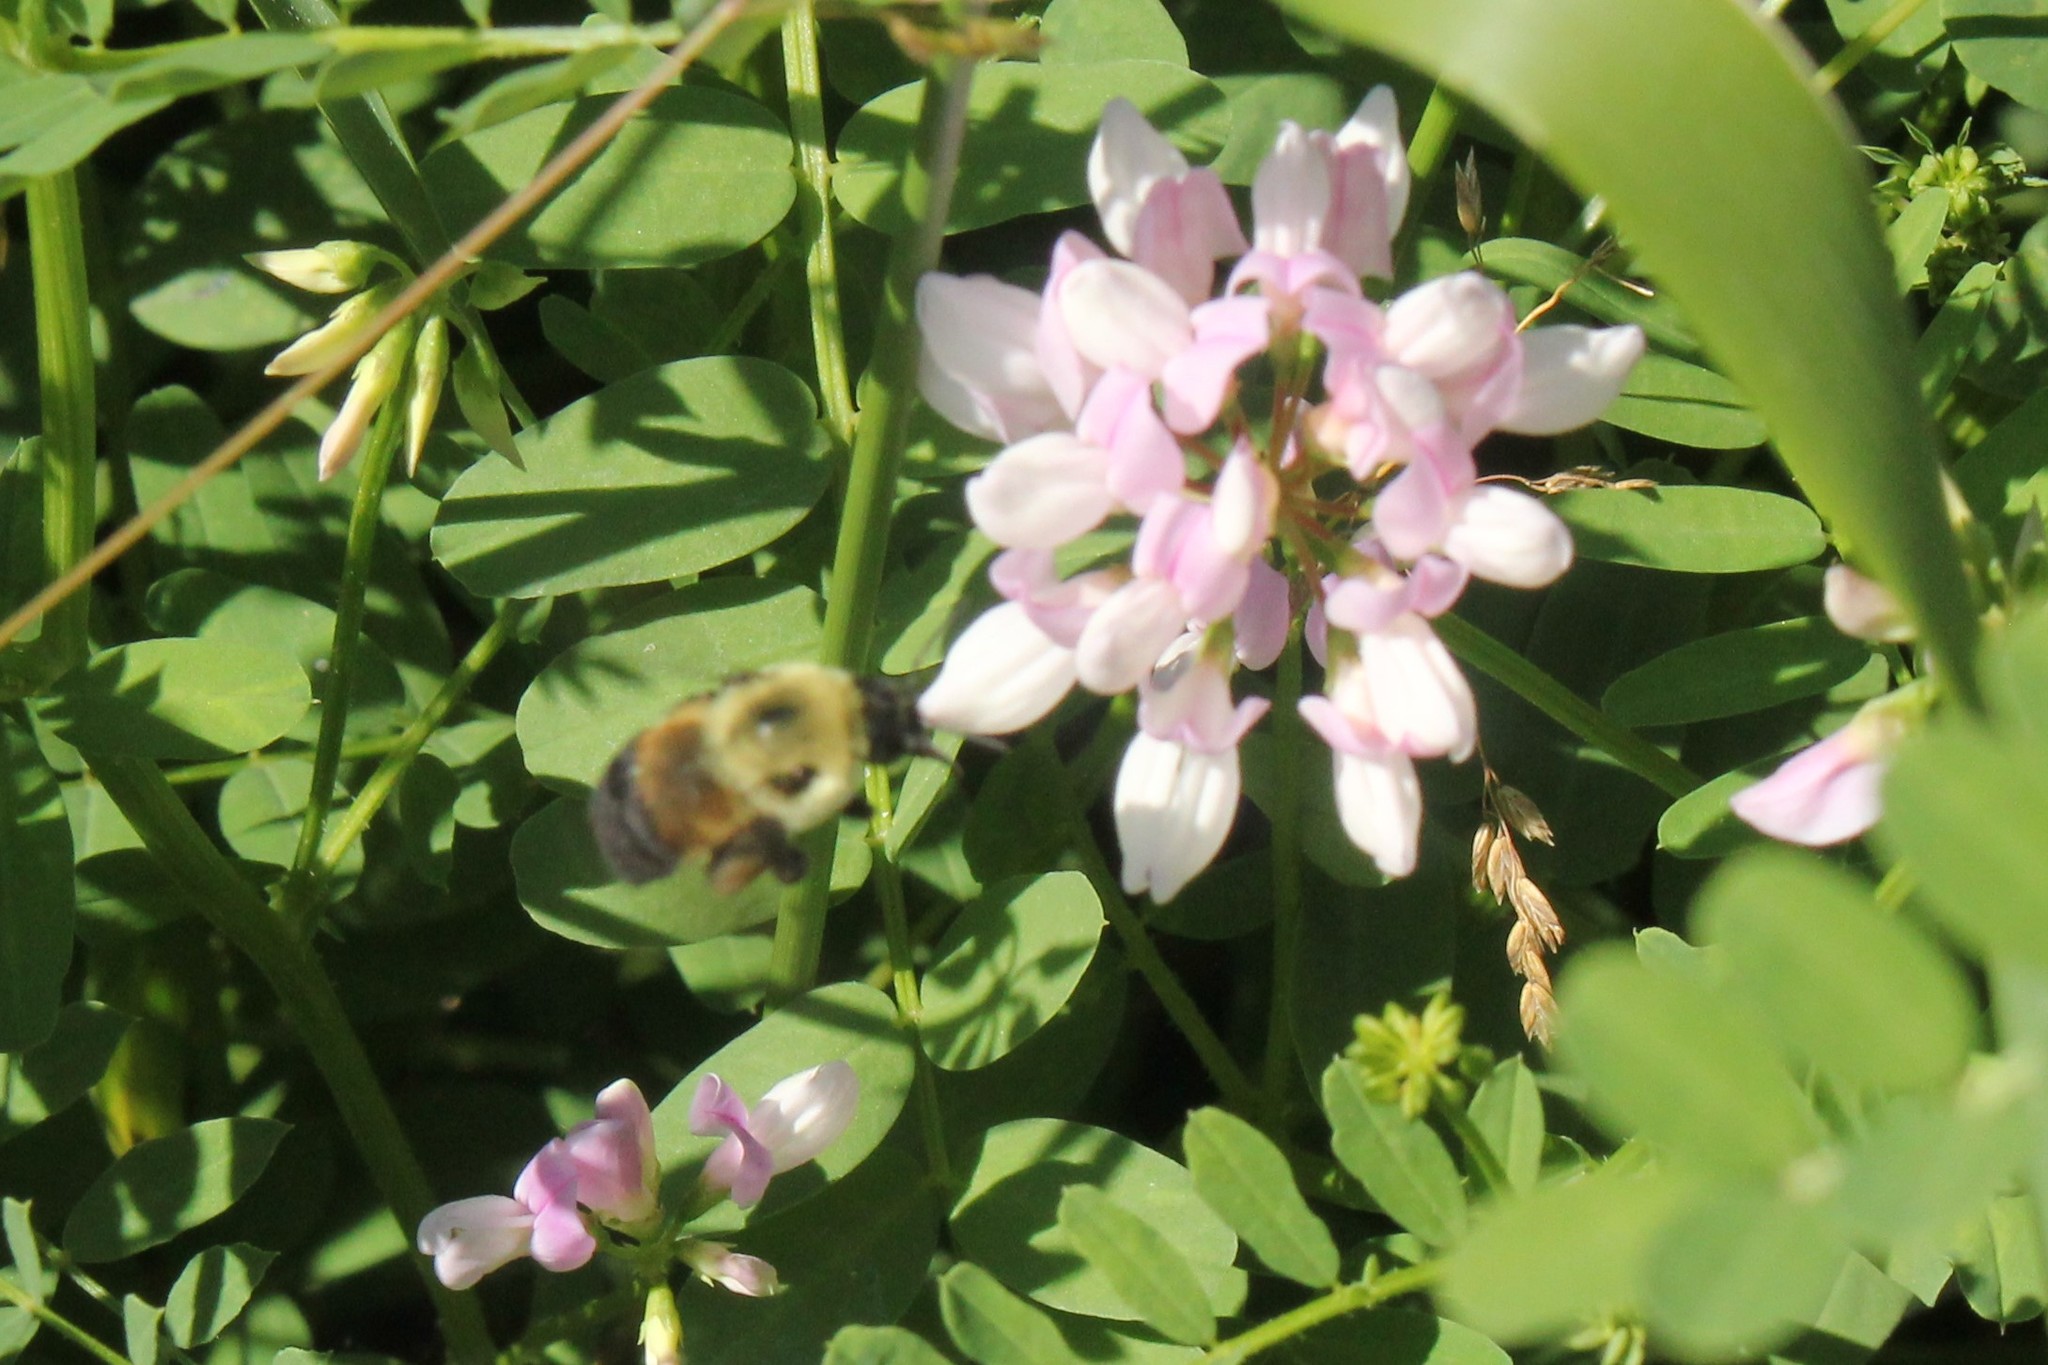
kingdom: Animalia
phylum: Arthropoda
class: Insecta
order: Hymenoptera
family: Apidae
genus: Bombus
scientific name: Bombus griseocollis
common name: Brown-belted bumble bee
